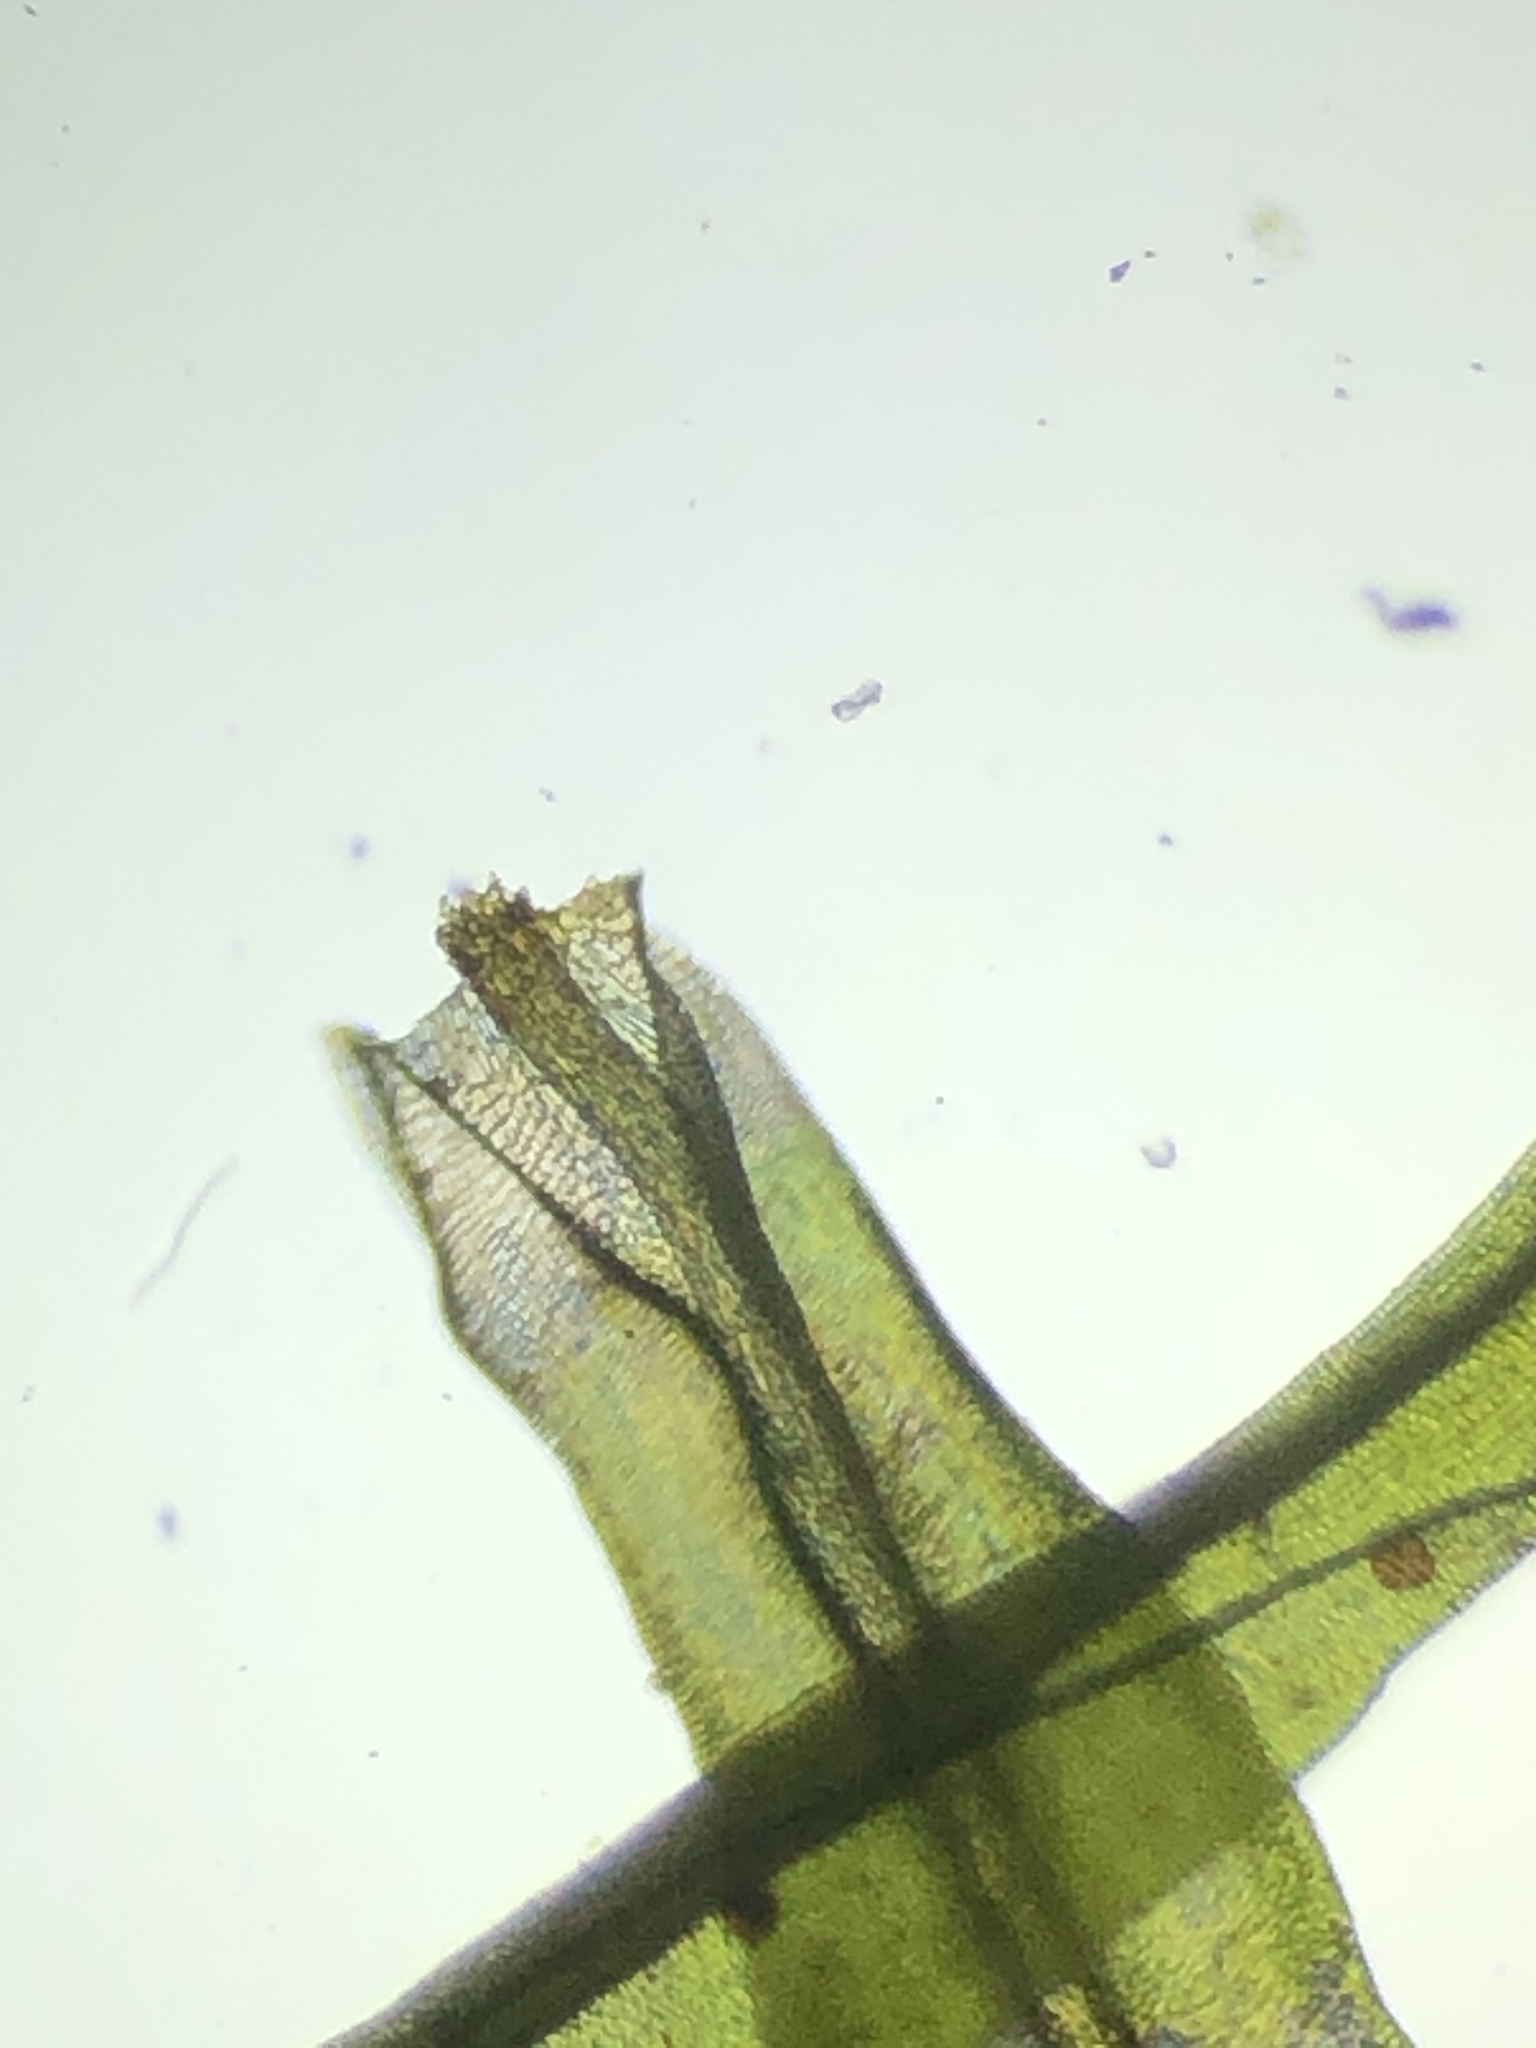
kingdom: Plantae
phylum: Bryophyta
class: Bryopsida
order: Orthotrichales
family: Orthotrichaceae
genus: Ulota
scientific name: Ulota crispa
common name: Crisped pincushion moss
